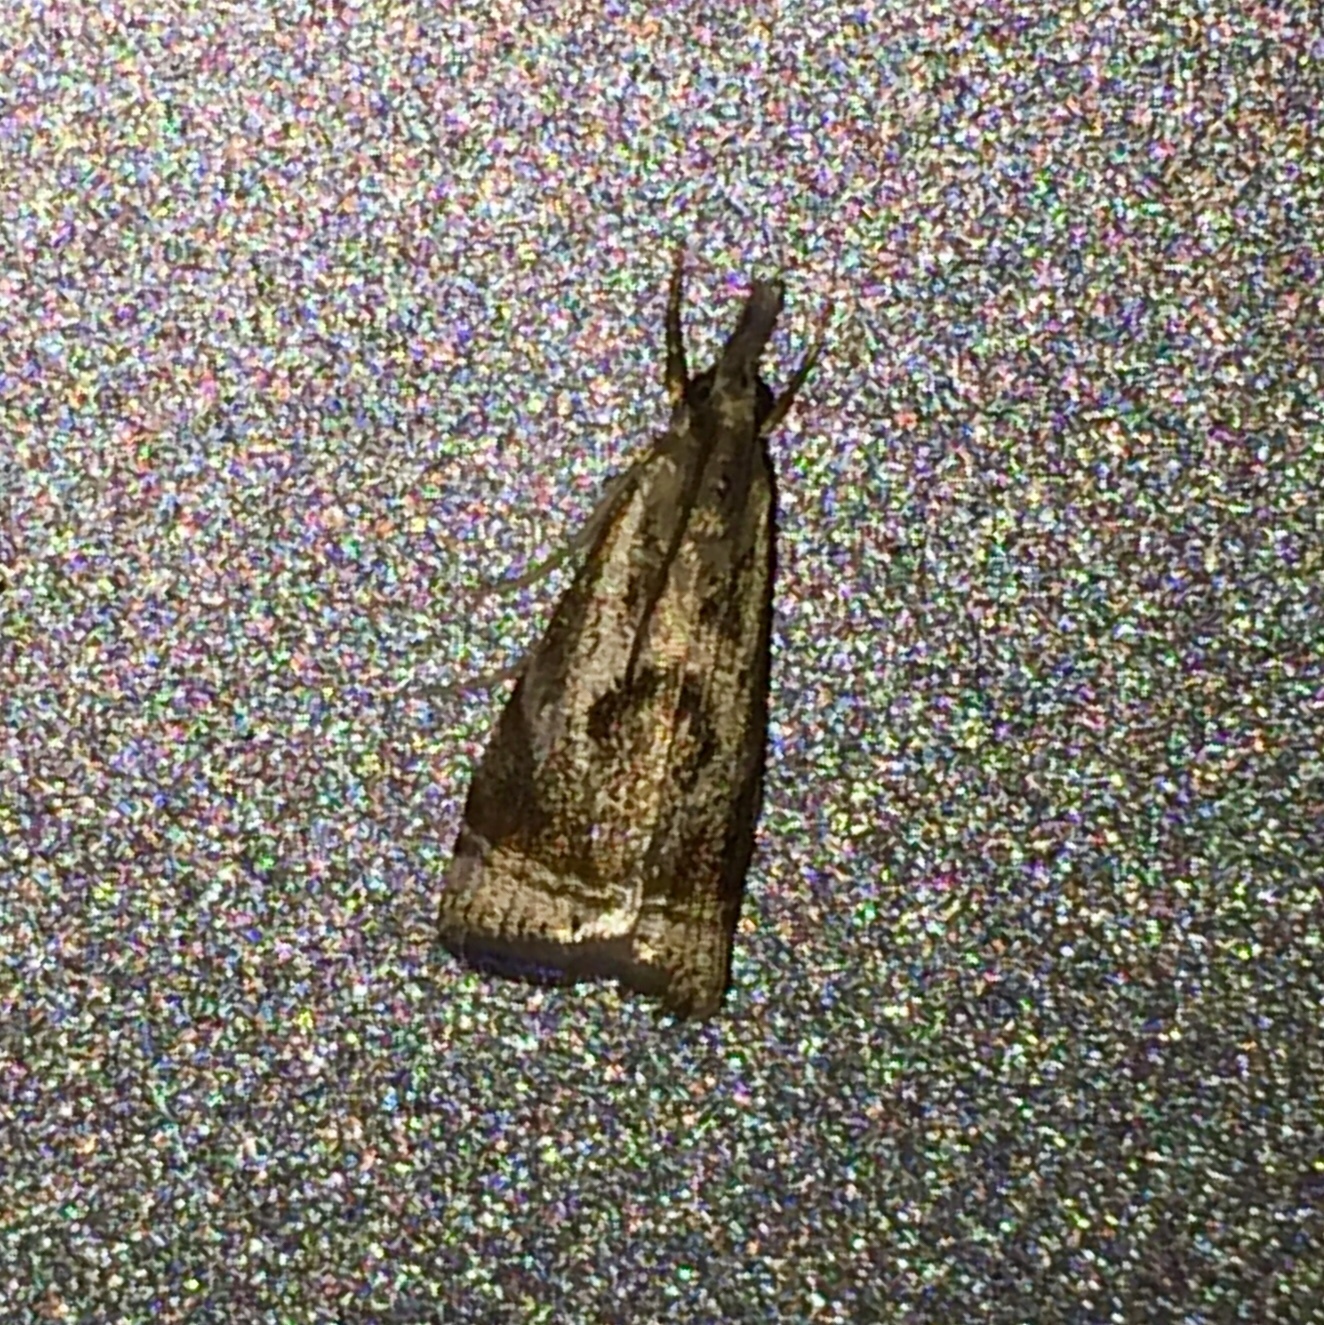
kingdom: Animalia
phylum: Arthropoda
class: Insecta
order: Lepidoptera
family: Crambidae
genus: Microcrambus
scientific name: Microcrambus elegans
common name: Elegant grass-veneer
